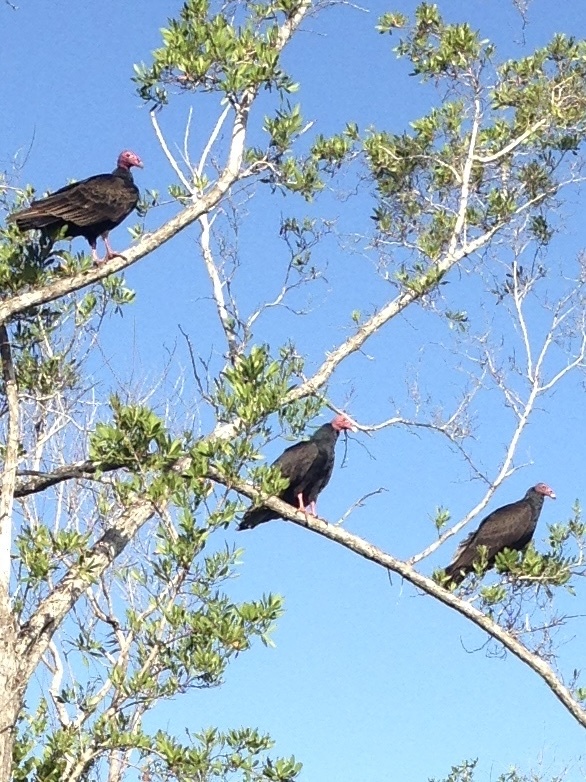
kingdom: Animalia
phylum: Chordata
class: Aves
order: Accipitriformes
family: Cathartidae
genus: Cathartes
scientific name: Cathartes aura
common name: Turkey vulture
